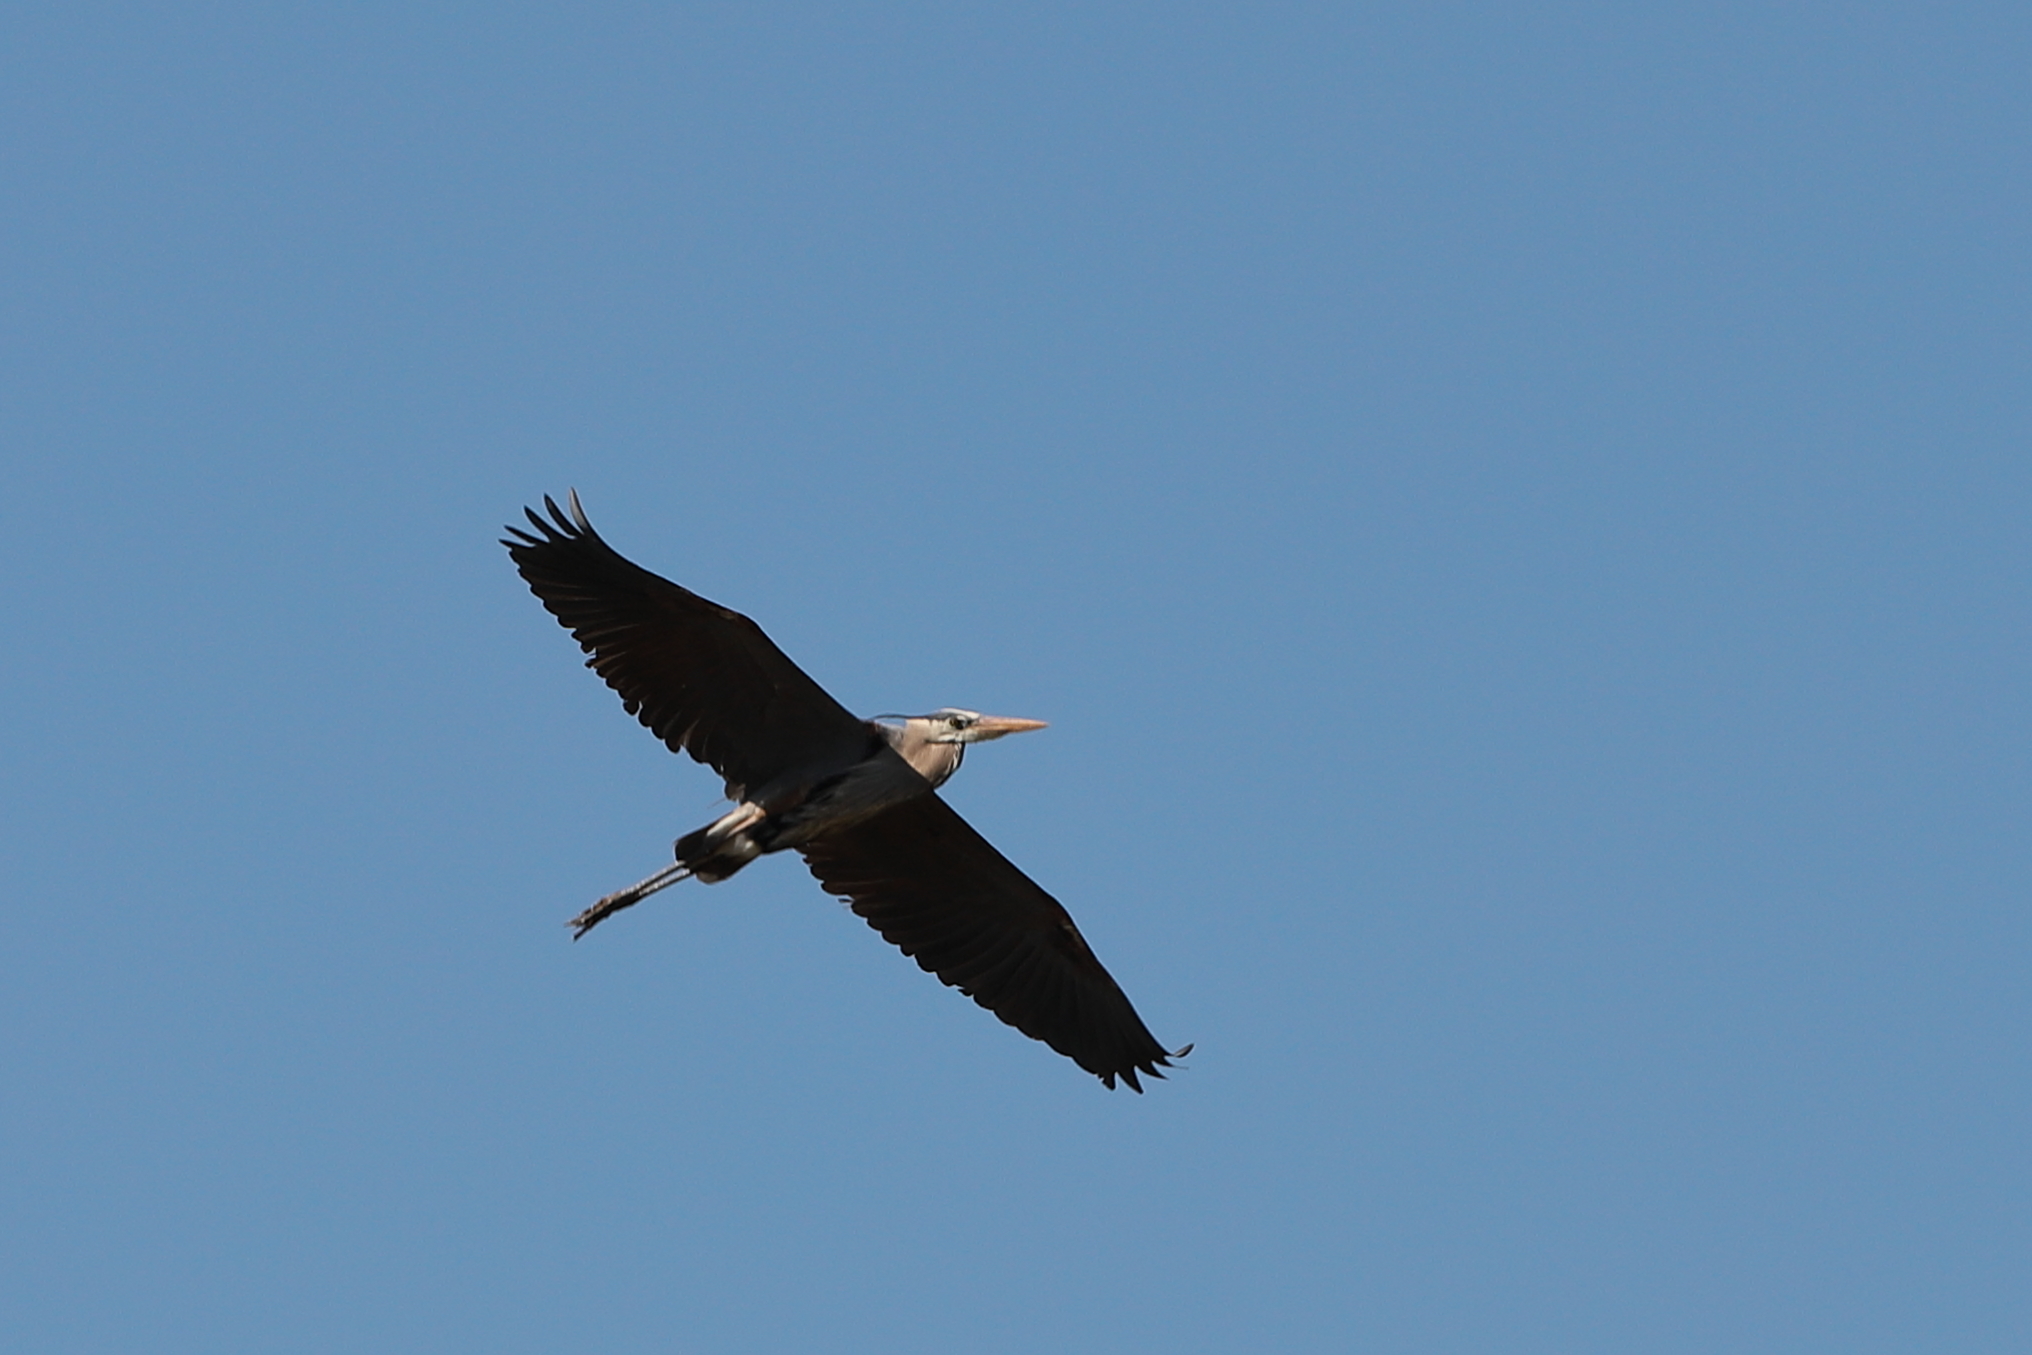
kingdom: Animalia
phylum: Chordata
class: Aves
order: Pelecaniformes
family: Ardeidae
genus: Ardea
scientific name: Ardea herodias
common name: Great blue heron
